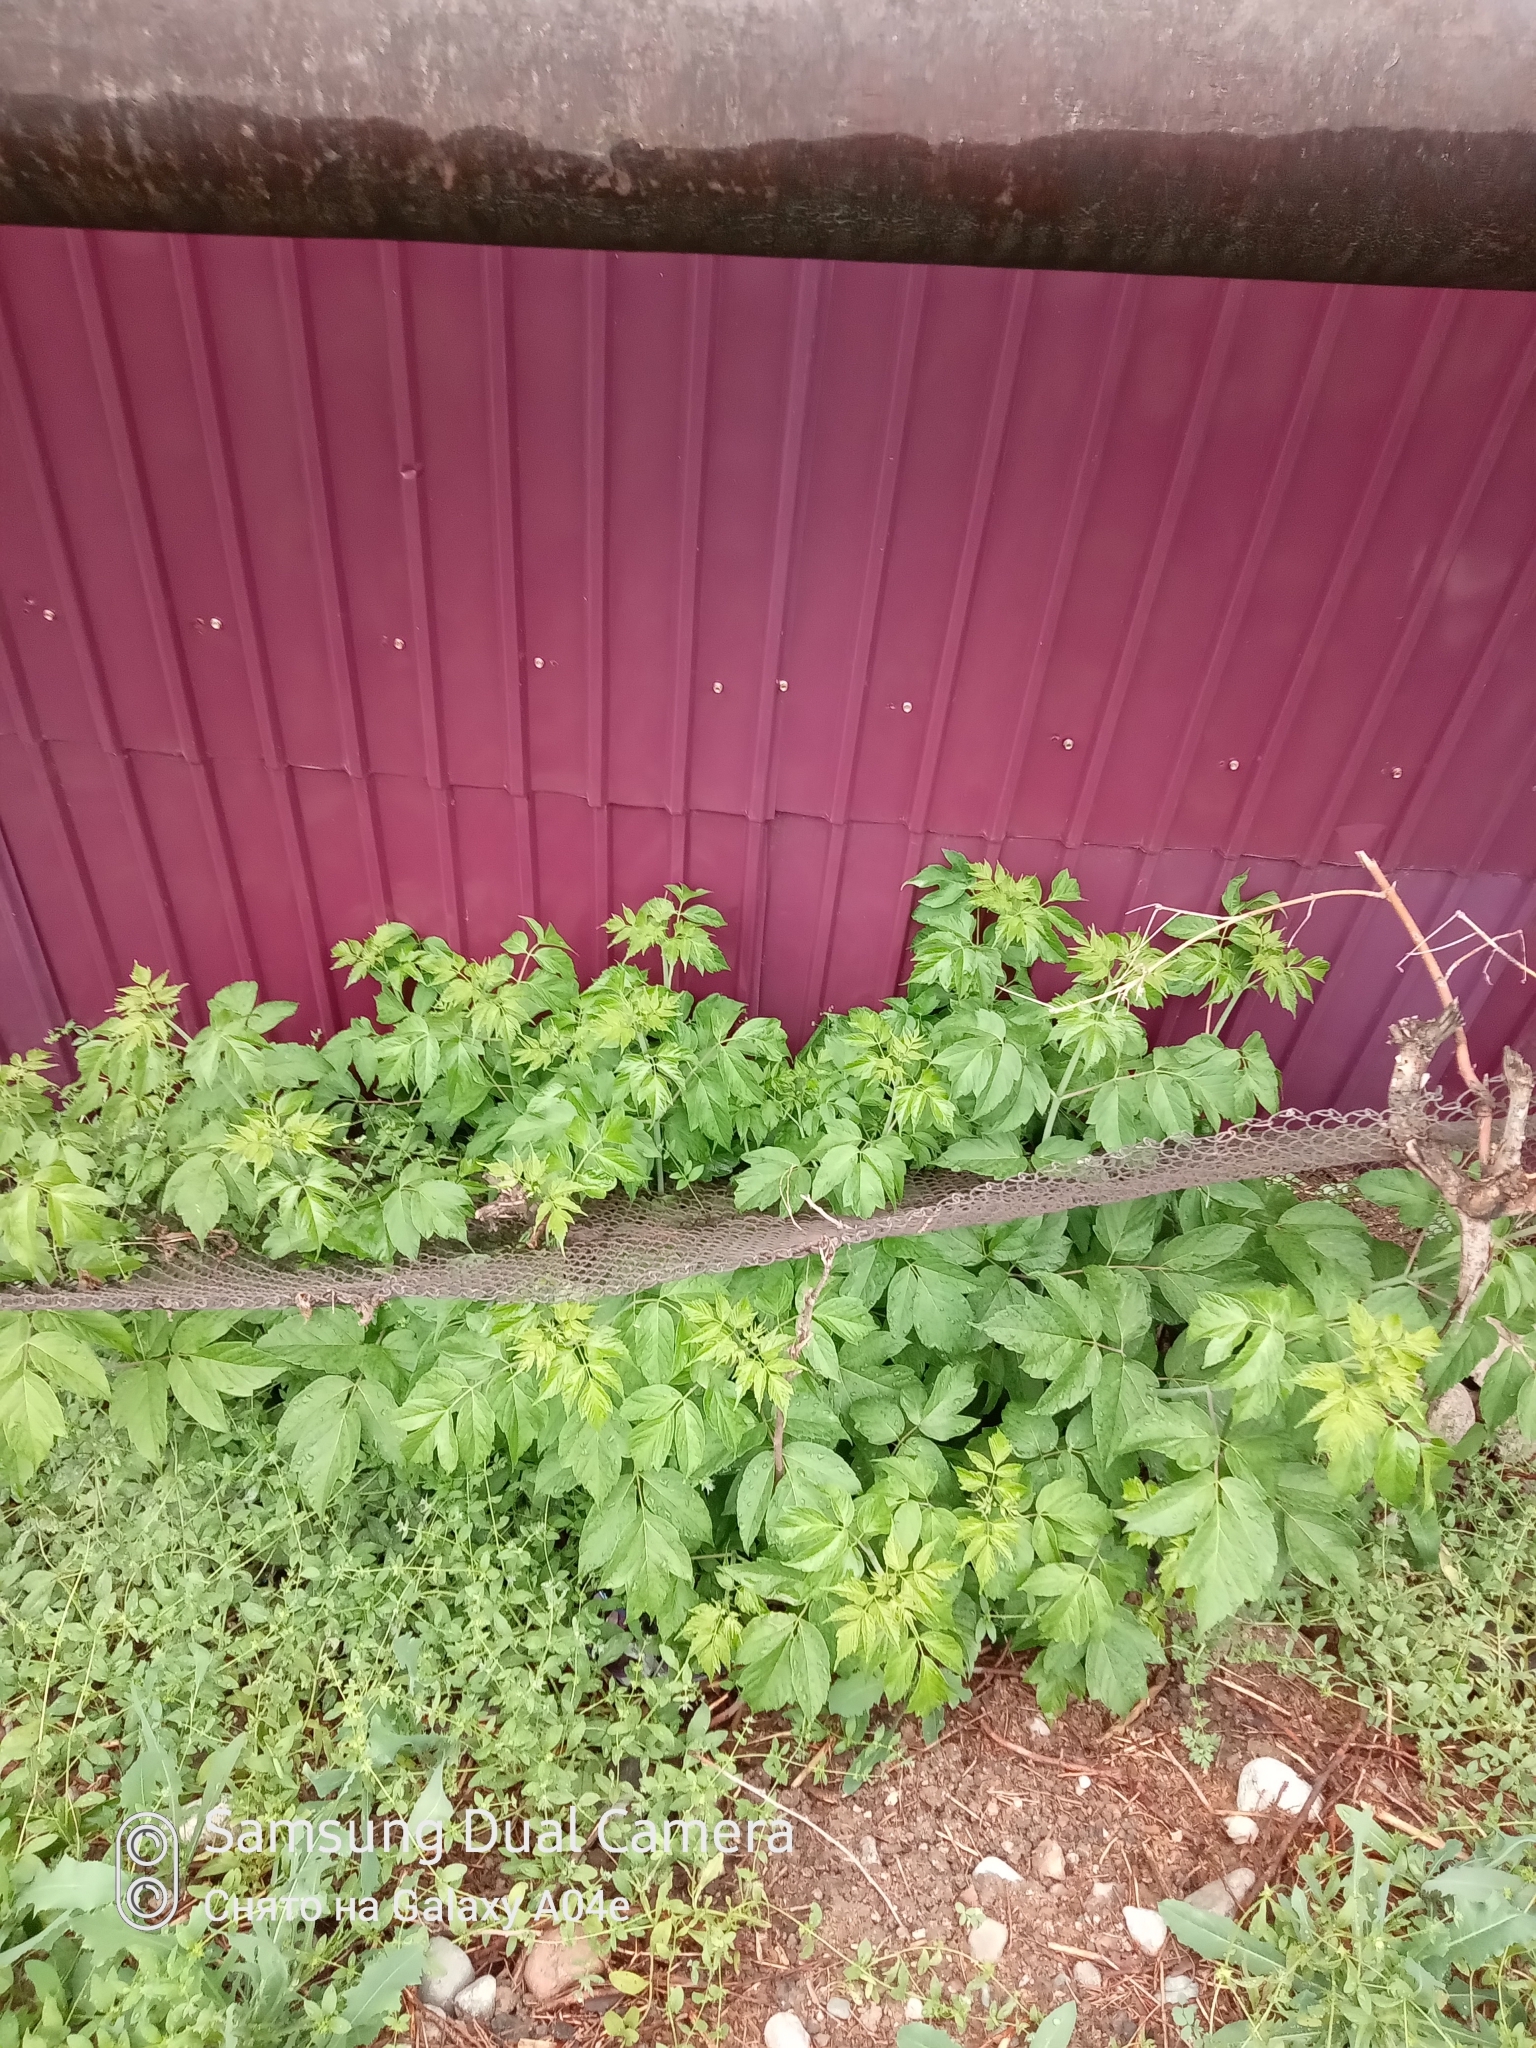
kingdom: Plantae
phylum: Tracheophyta
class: Magnoliopsida
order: Sapindales
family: Sapindaceae
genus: Acer
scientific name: Acer negundo
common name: Ashleaf maple
